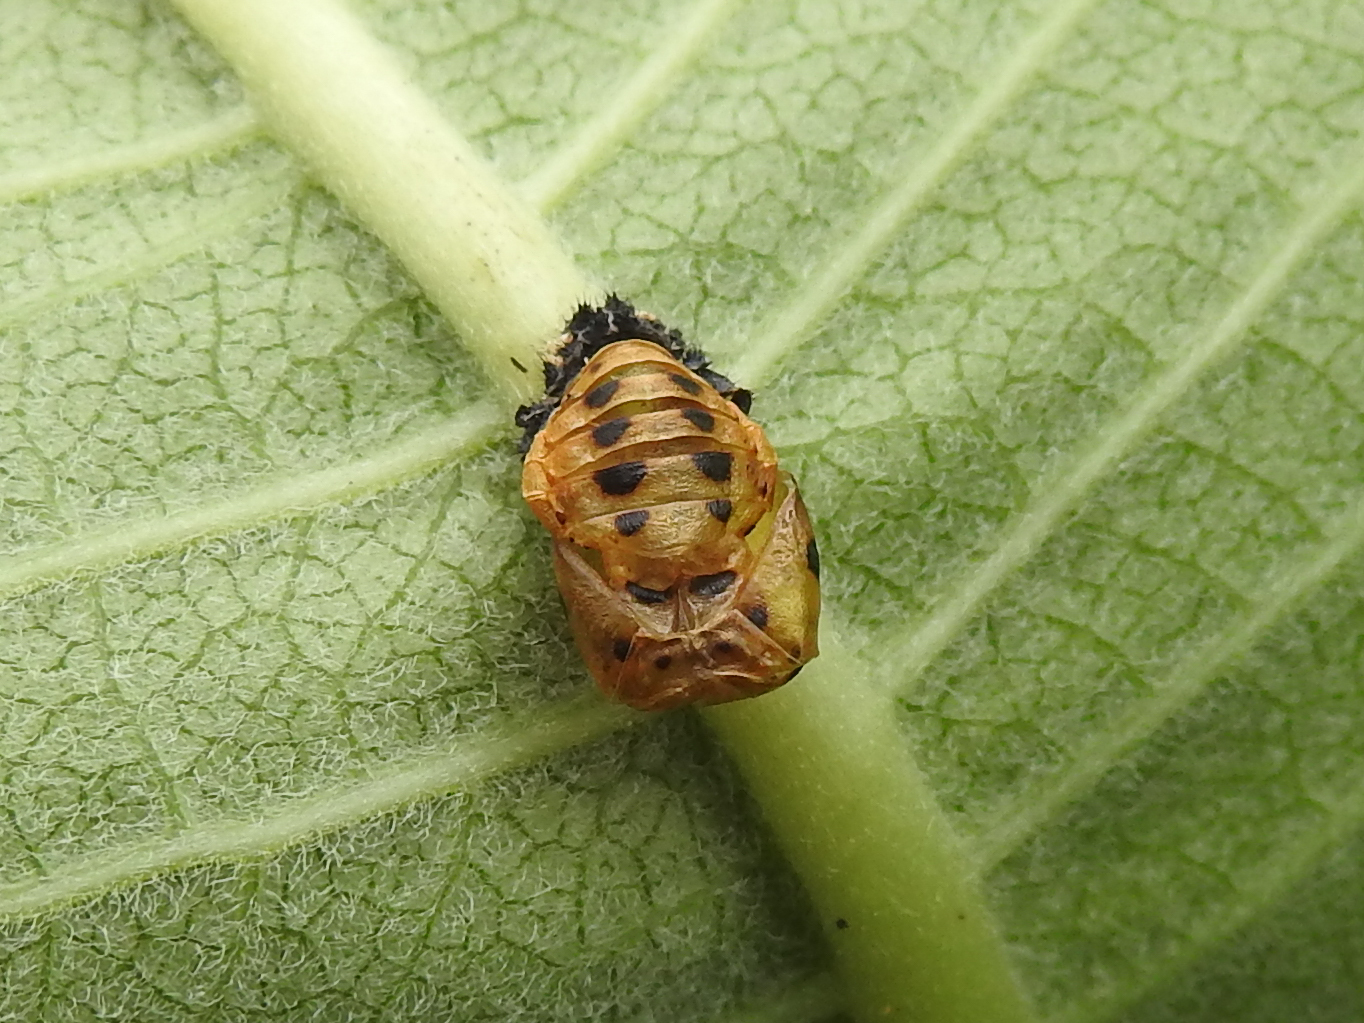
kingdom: Animalia
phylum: Arthropoda
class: Insecta
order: Coleoptera
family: Coccinellidae
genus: Harmonia
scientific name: Harmonia axyridis
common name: Harlequin ladybird
